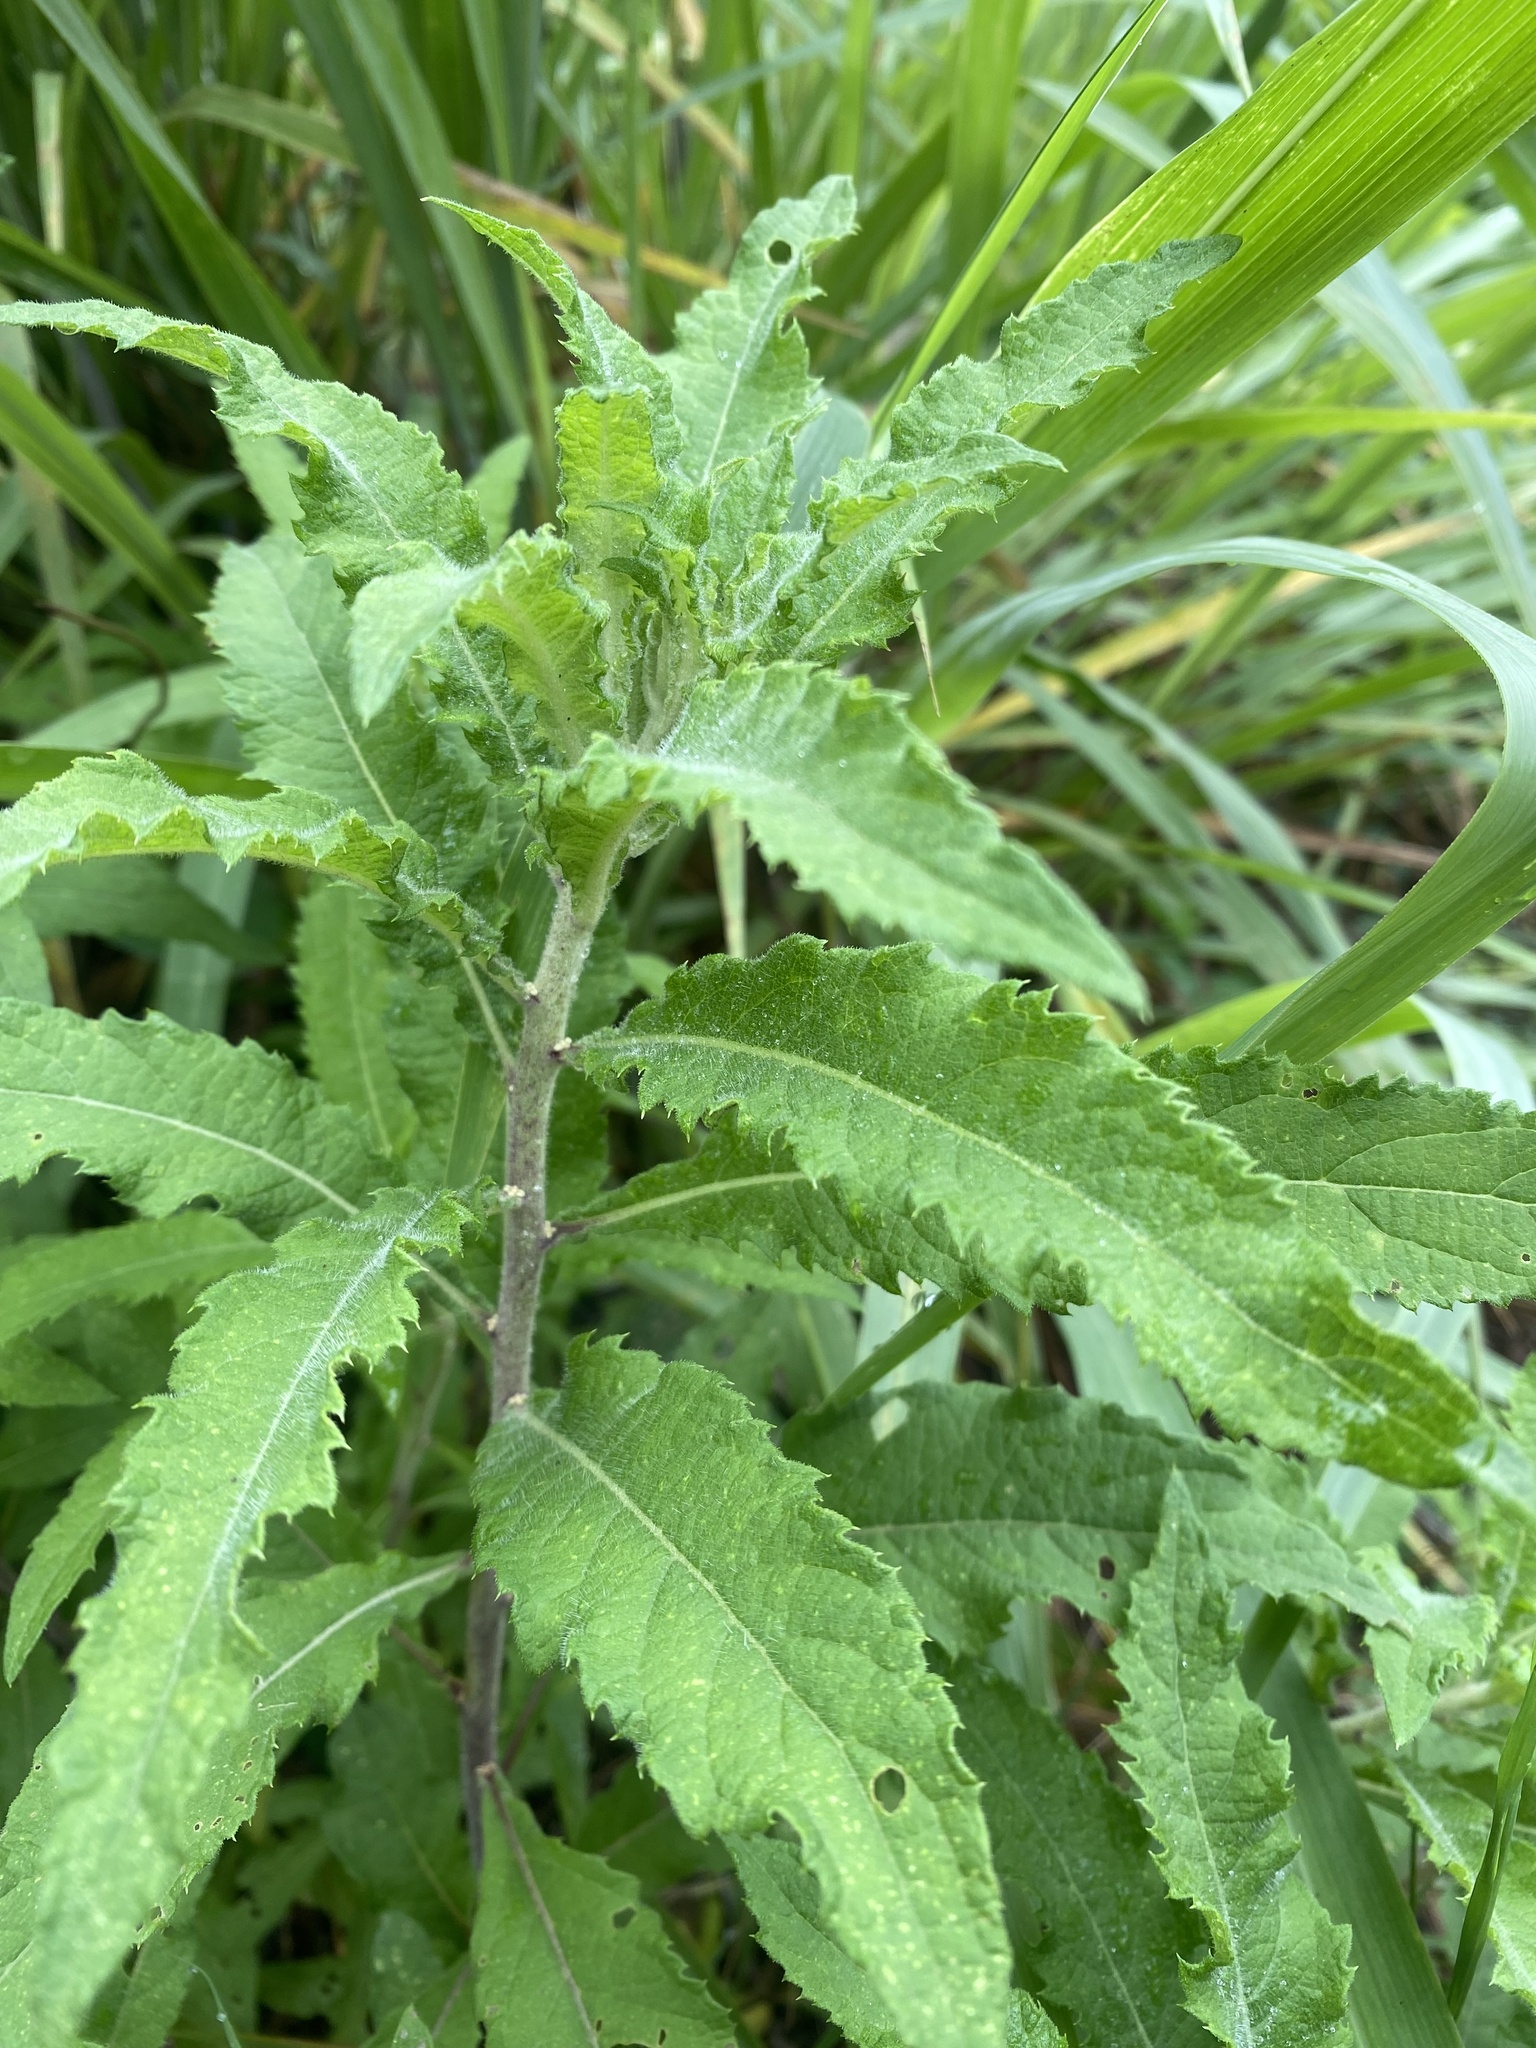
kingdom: Plantae
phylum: Tracheophyta
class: Magnoliopsida
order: Asterales
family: Asteraceae
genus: Baccharoides
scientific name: Baccharoides adoensis
